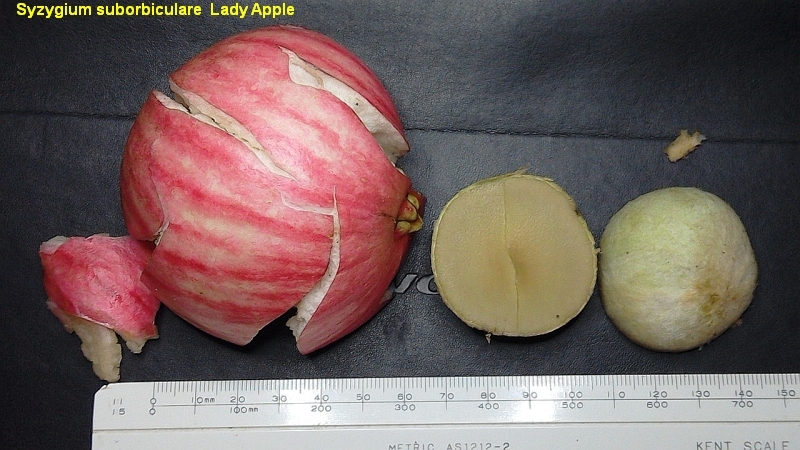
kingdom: Plantae
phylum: Tracheophyta
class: Magnoliopsida
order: Myrtales
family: Myrtaceae
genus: Syzygium
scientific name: Syzygium suborbiculare
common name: Red bush apple
